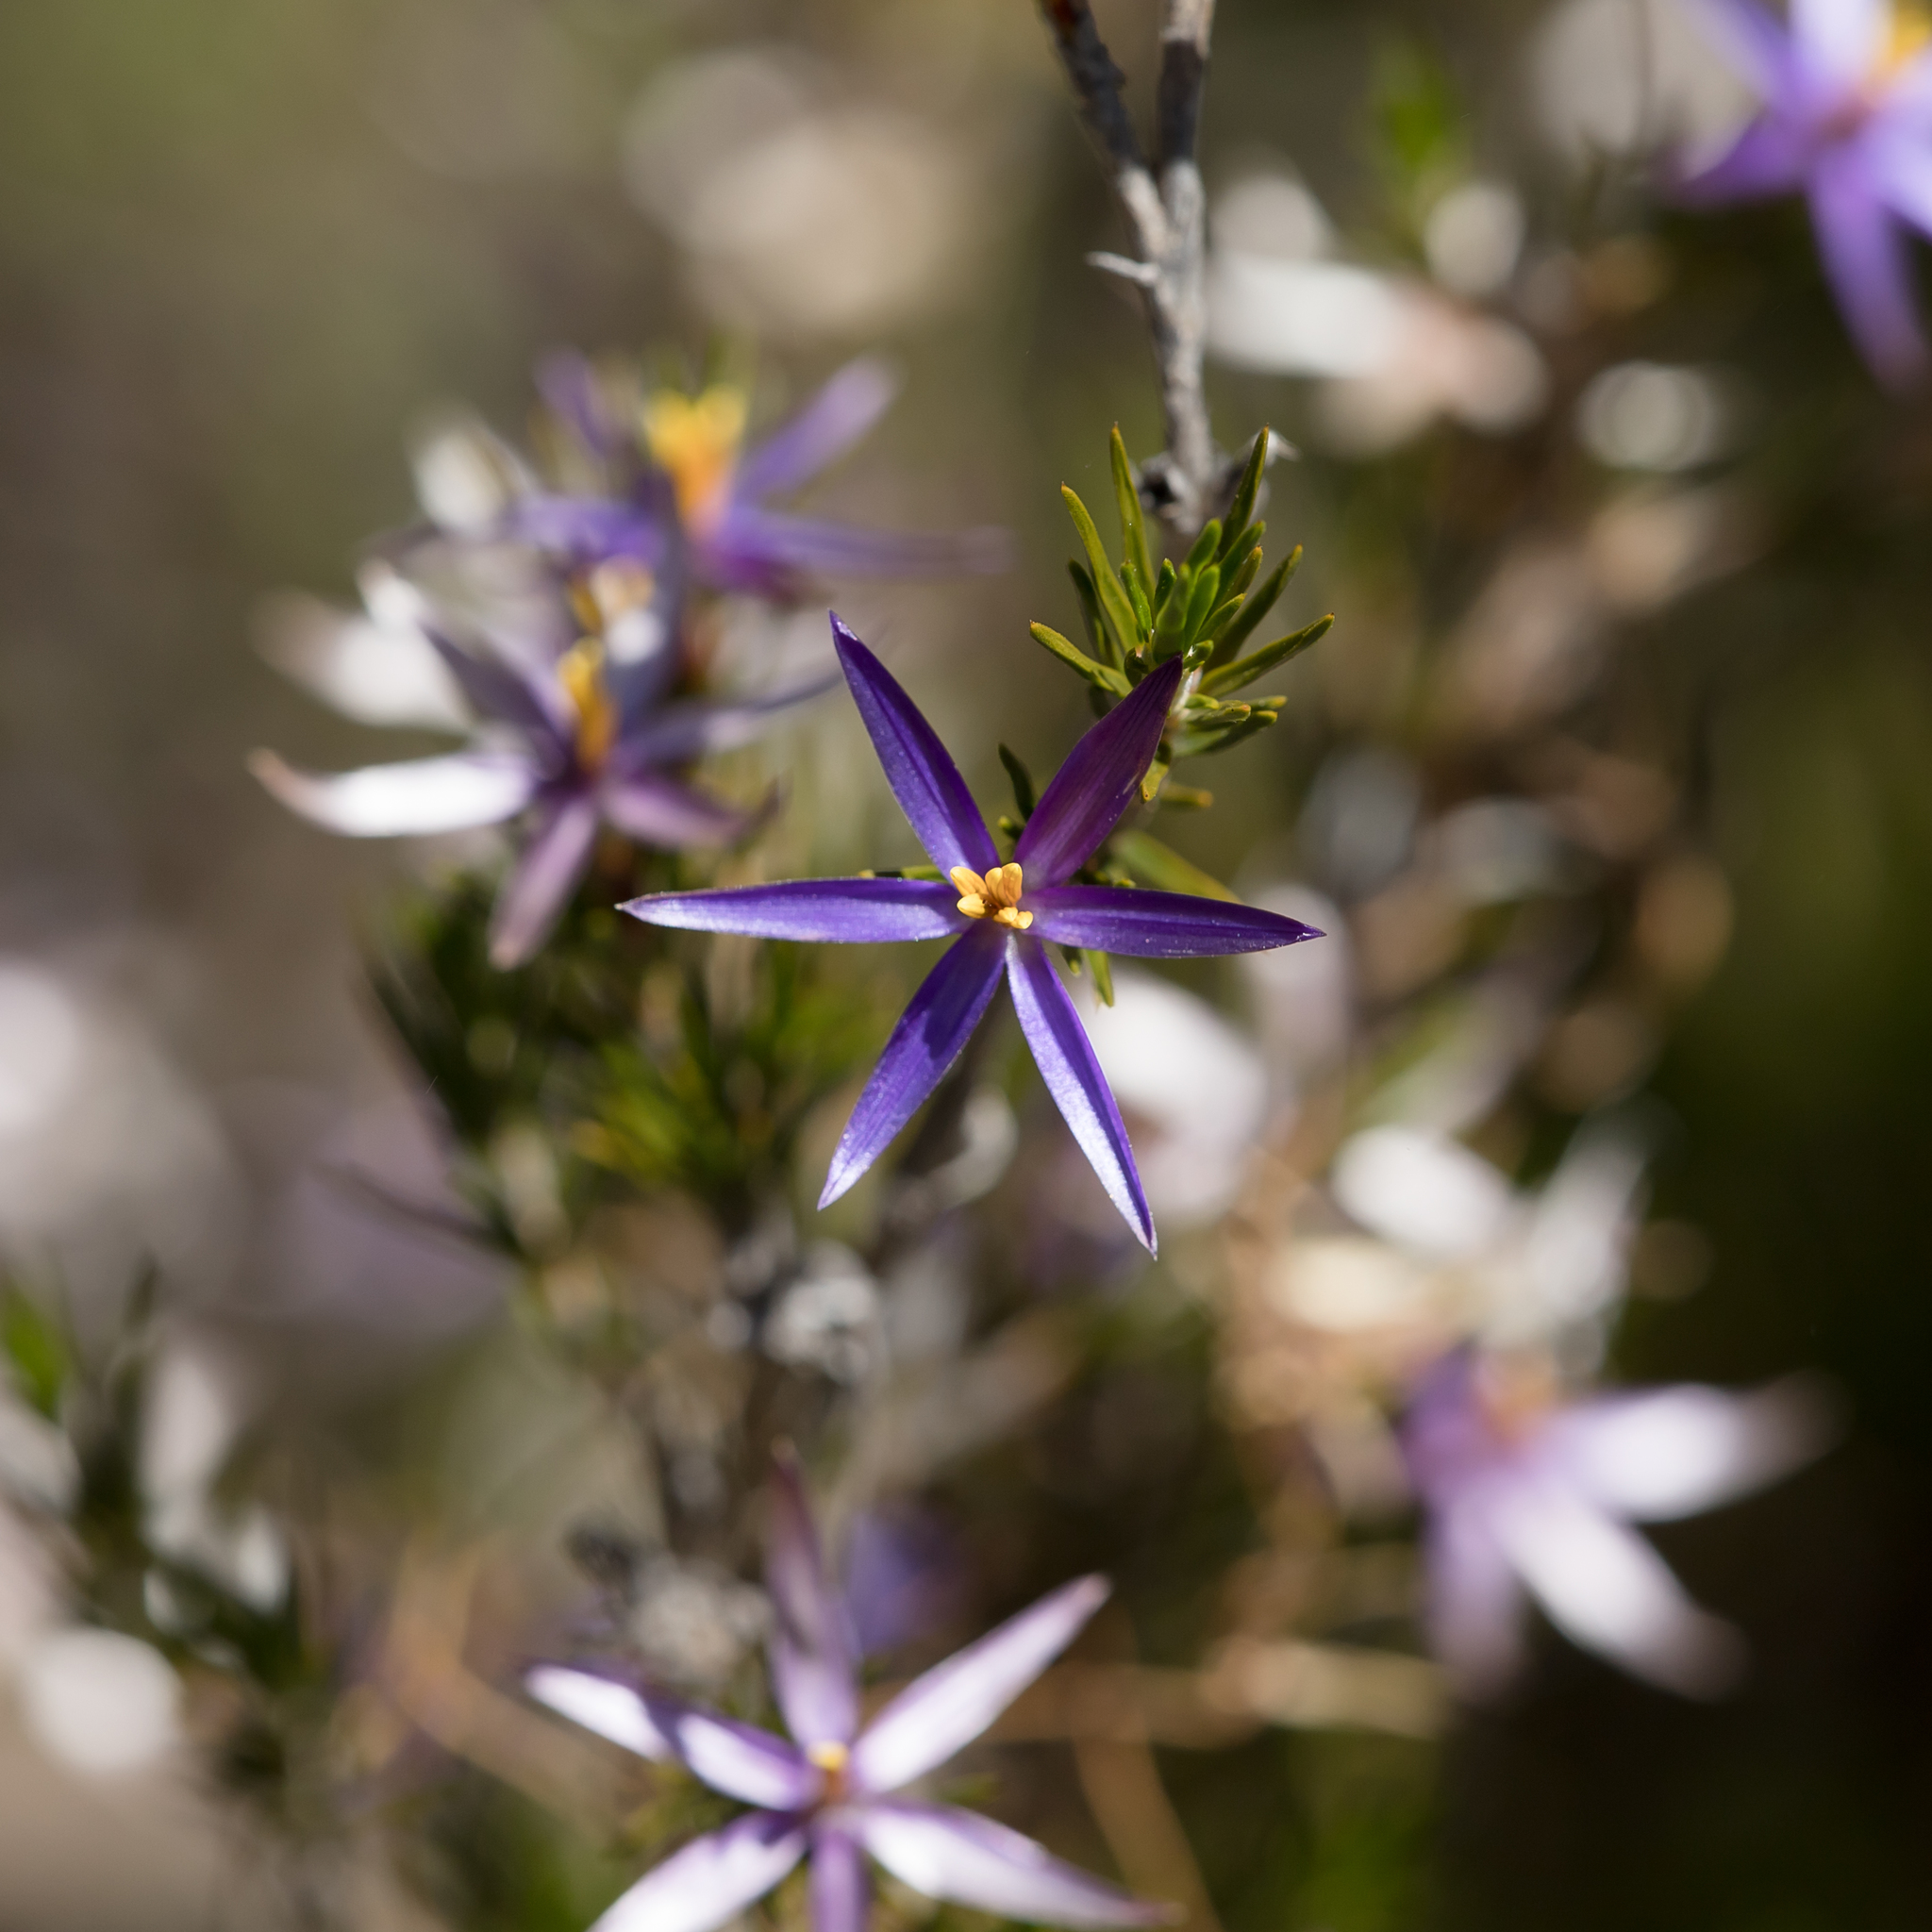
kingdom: Plantae
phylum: Tracheophyta
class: Liliopsida
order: Arecales
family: Dasypogonaceae
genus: Calectasia
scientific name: Calectasia intermedia
